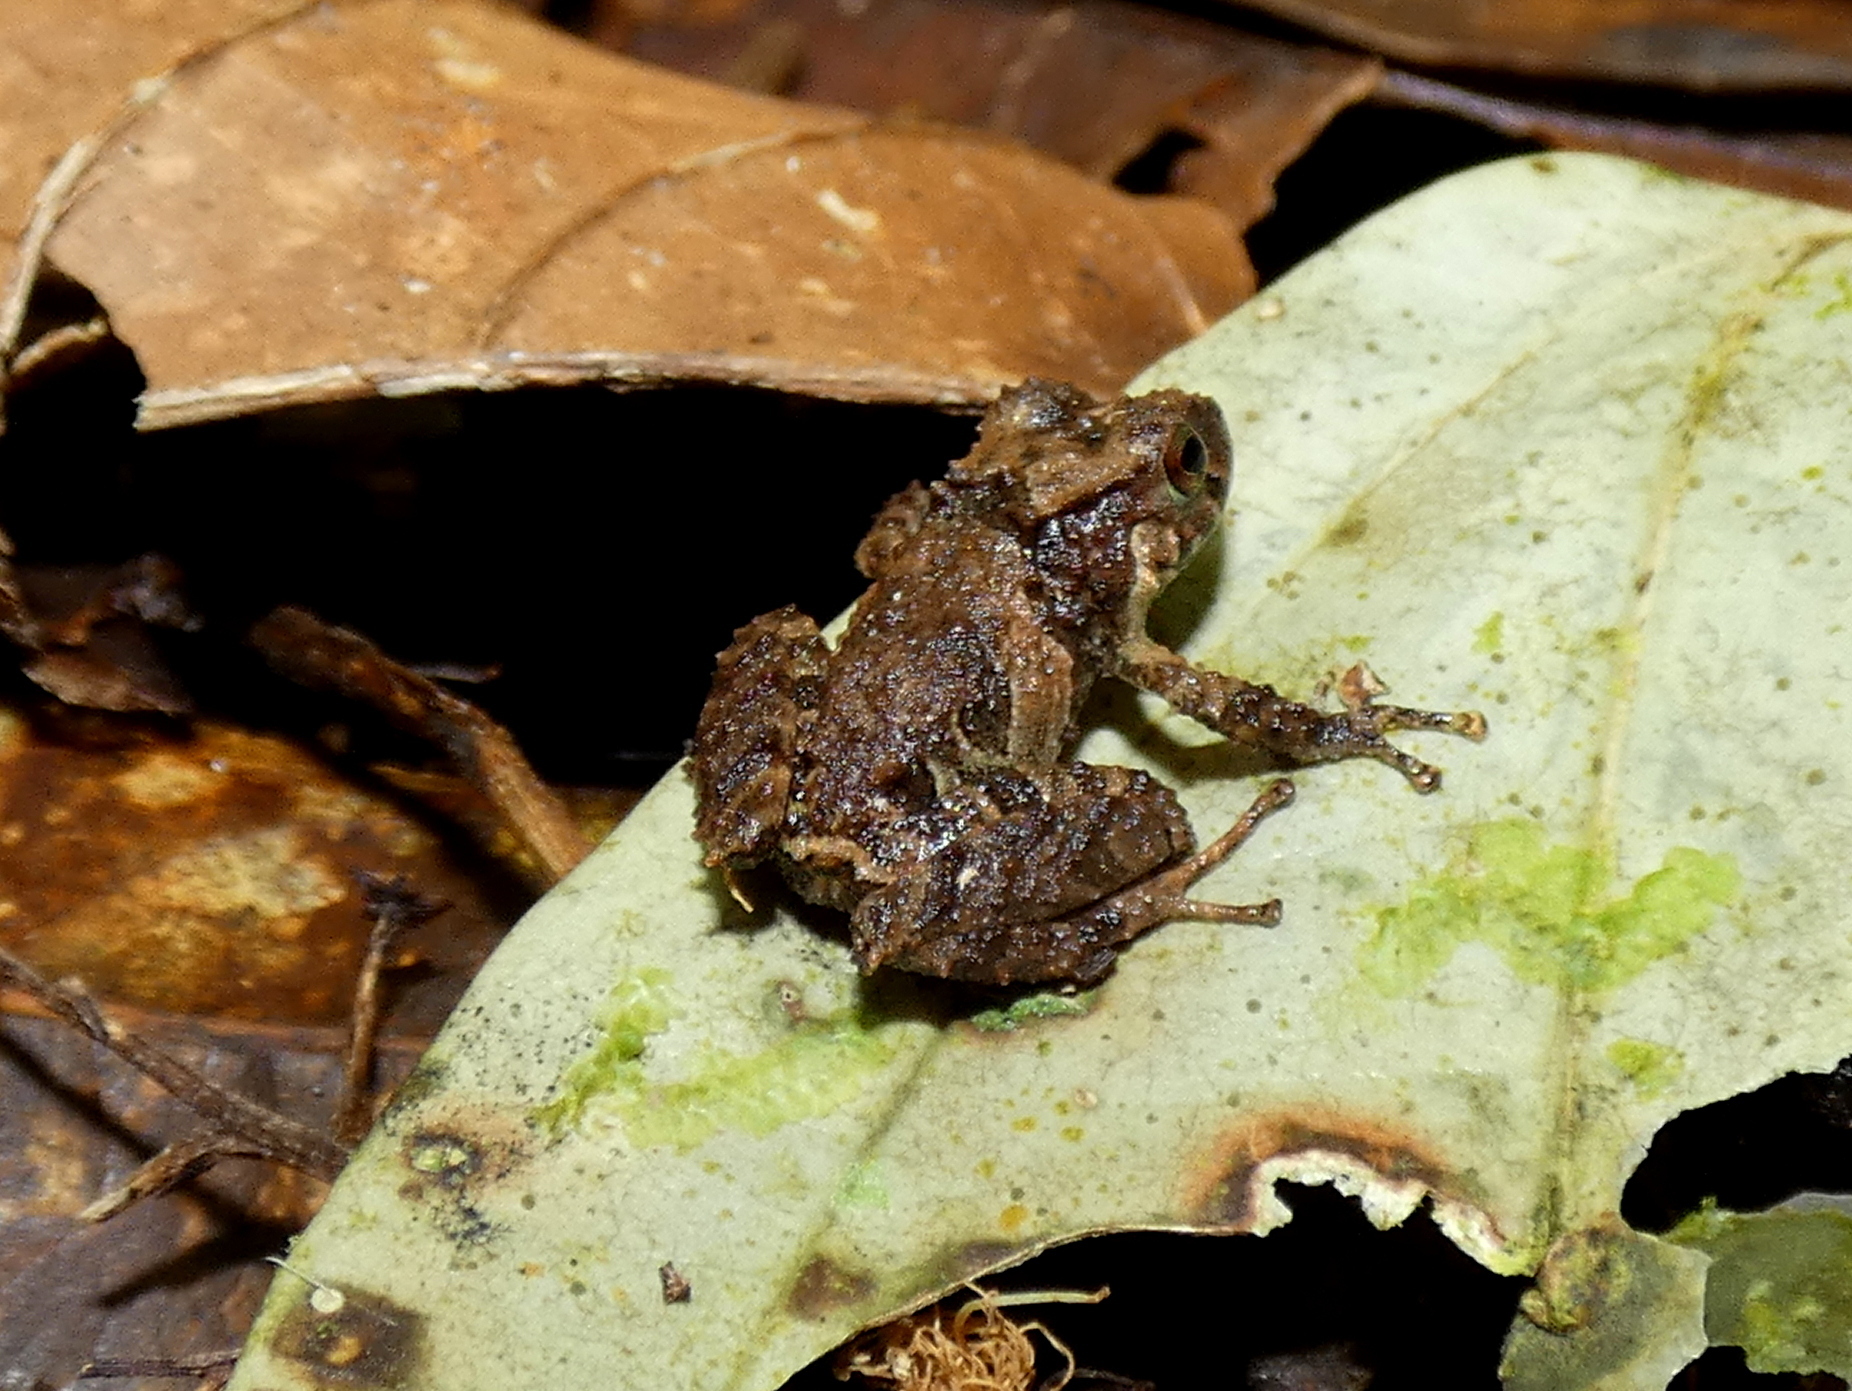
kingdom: Animalia
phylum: Chordata
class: Amphibia
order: Anura
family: Craugastoridae
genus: Pristimantis
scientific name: Pristimantis cruentus
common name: Chiriqui robber frog
